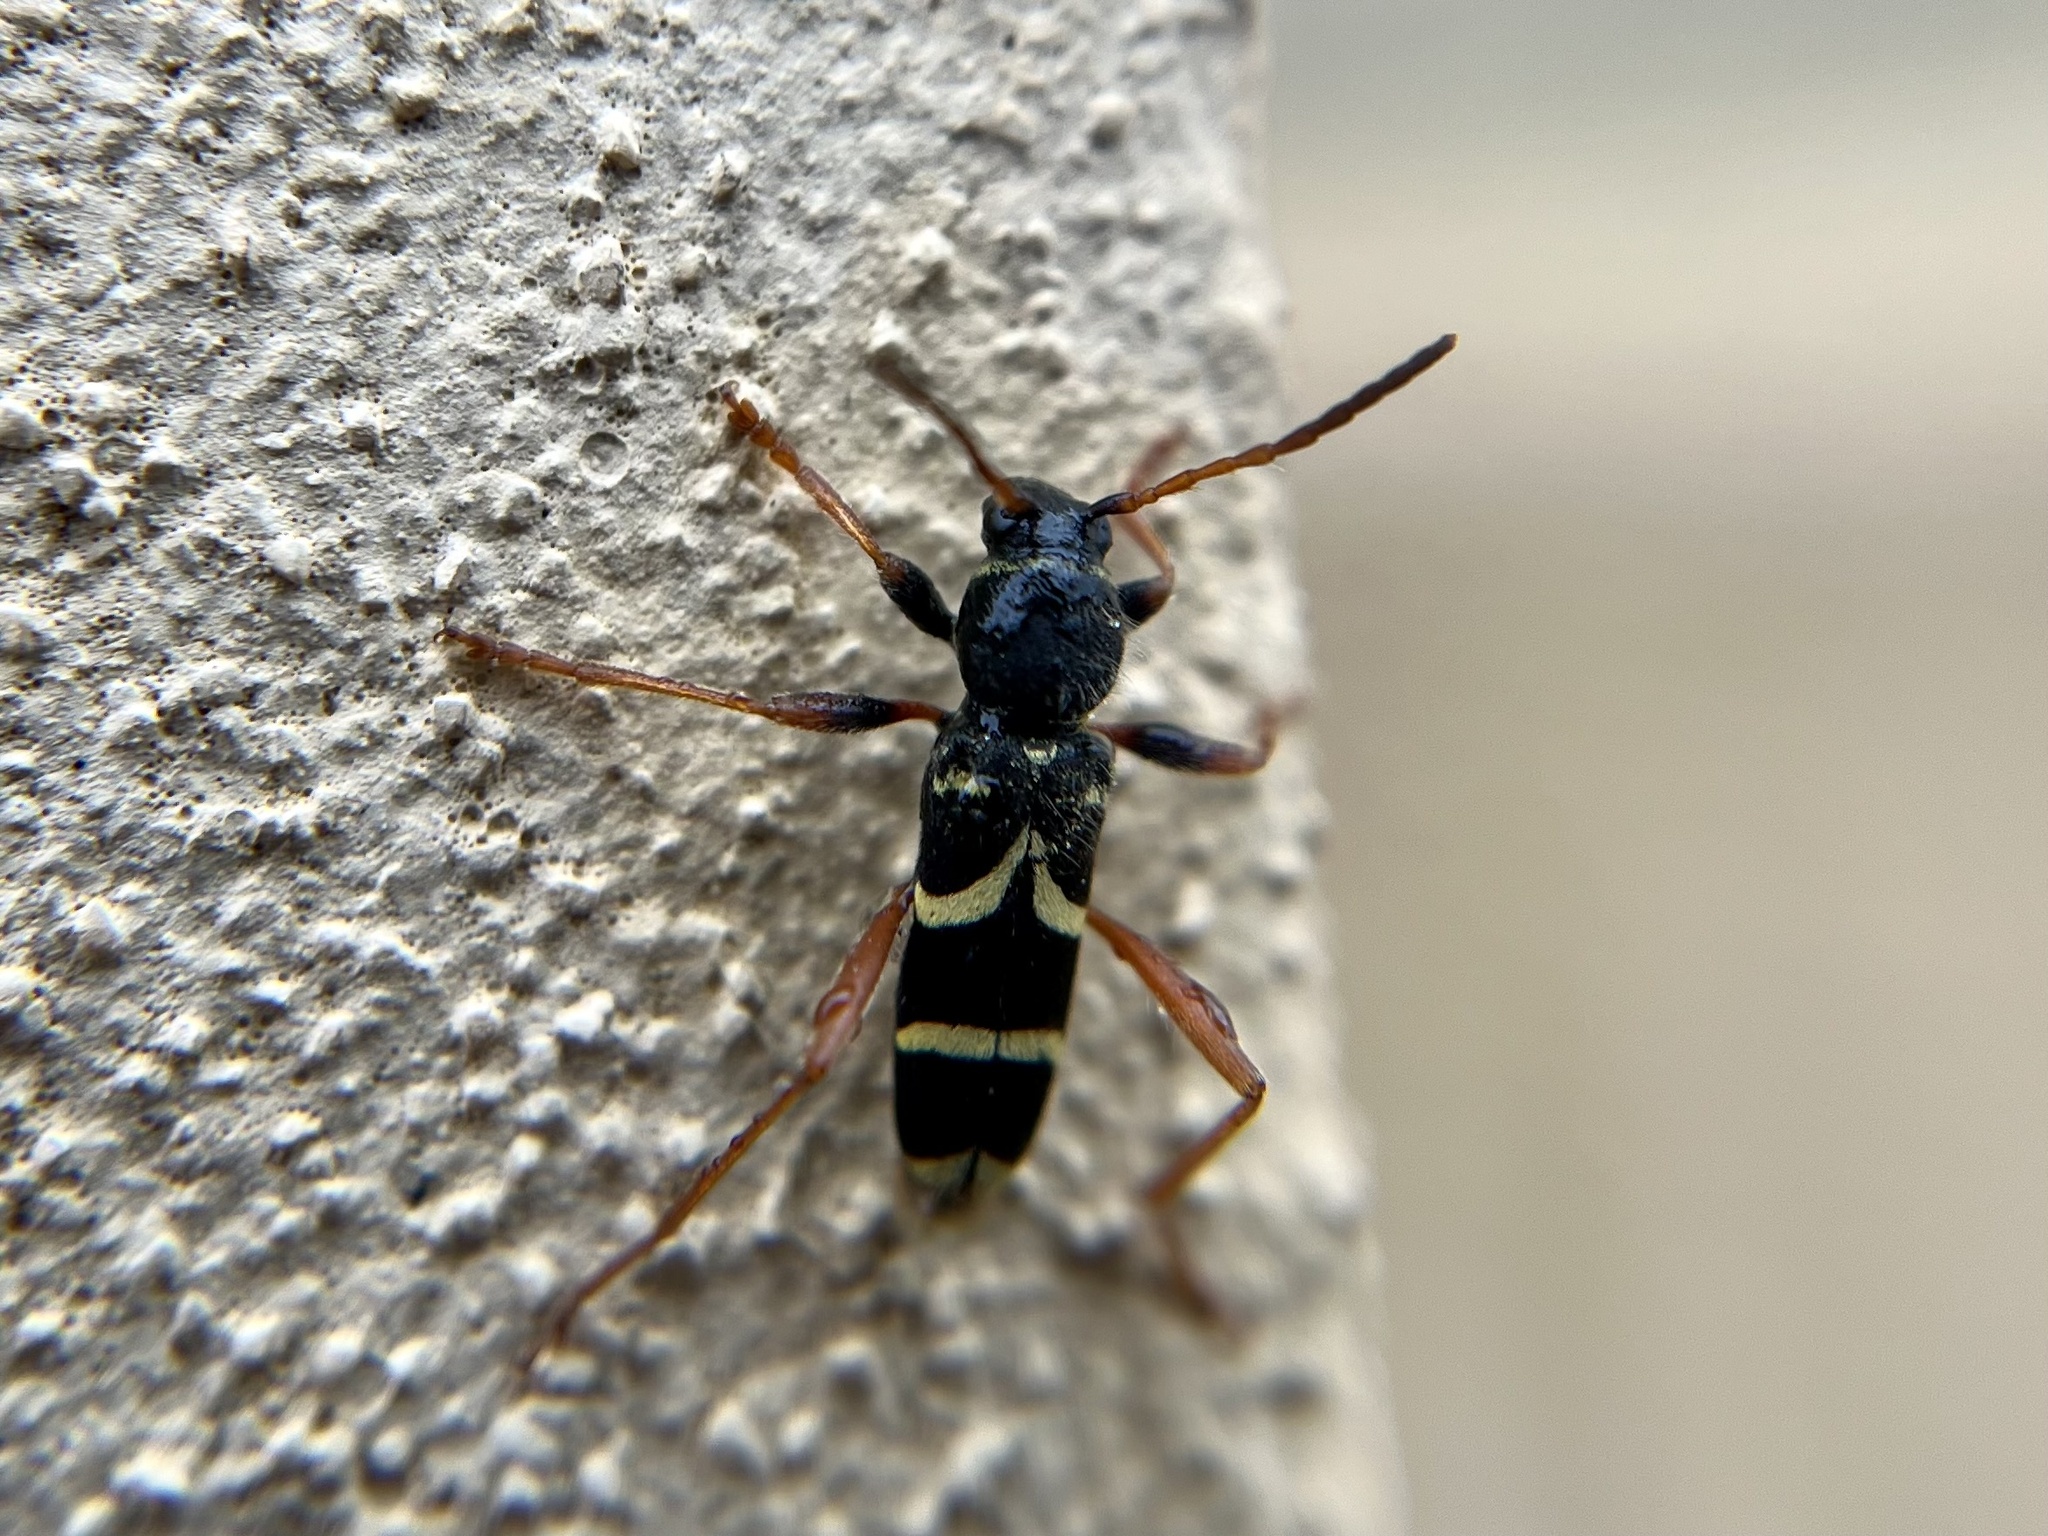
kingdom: Animalia
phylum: Arthropoda
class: Insecta
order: Coleoptera
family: Cerambycidae
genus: Clytus
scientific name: Clytus arietis
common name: Wasp beetle
